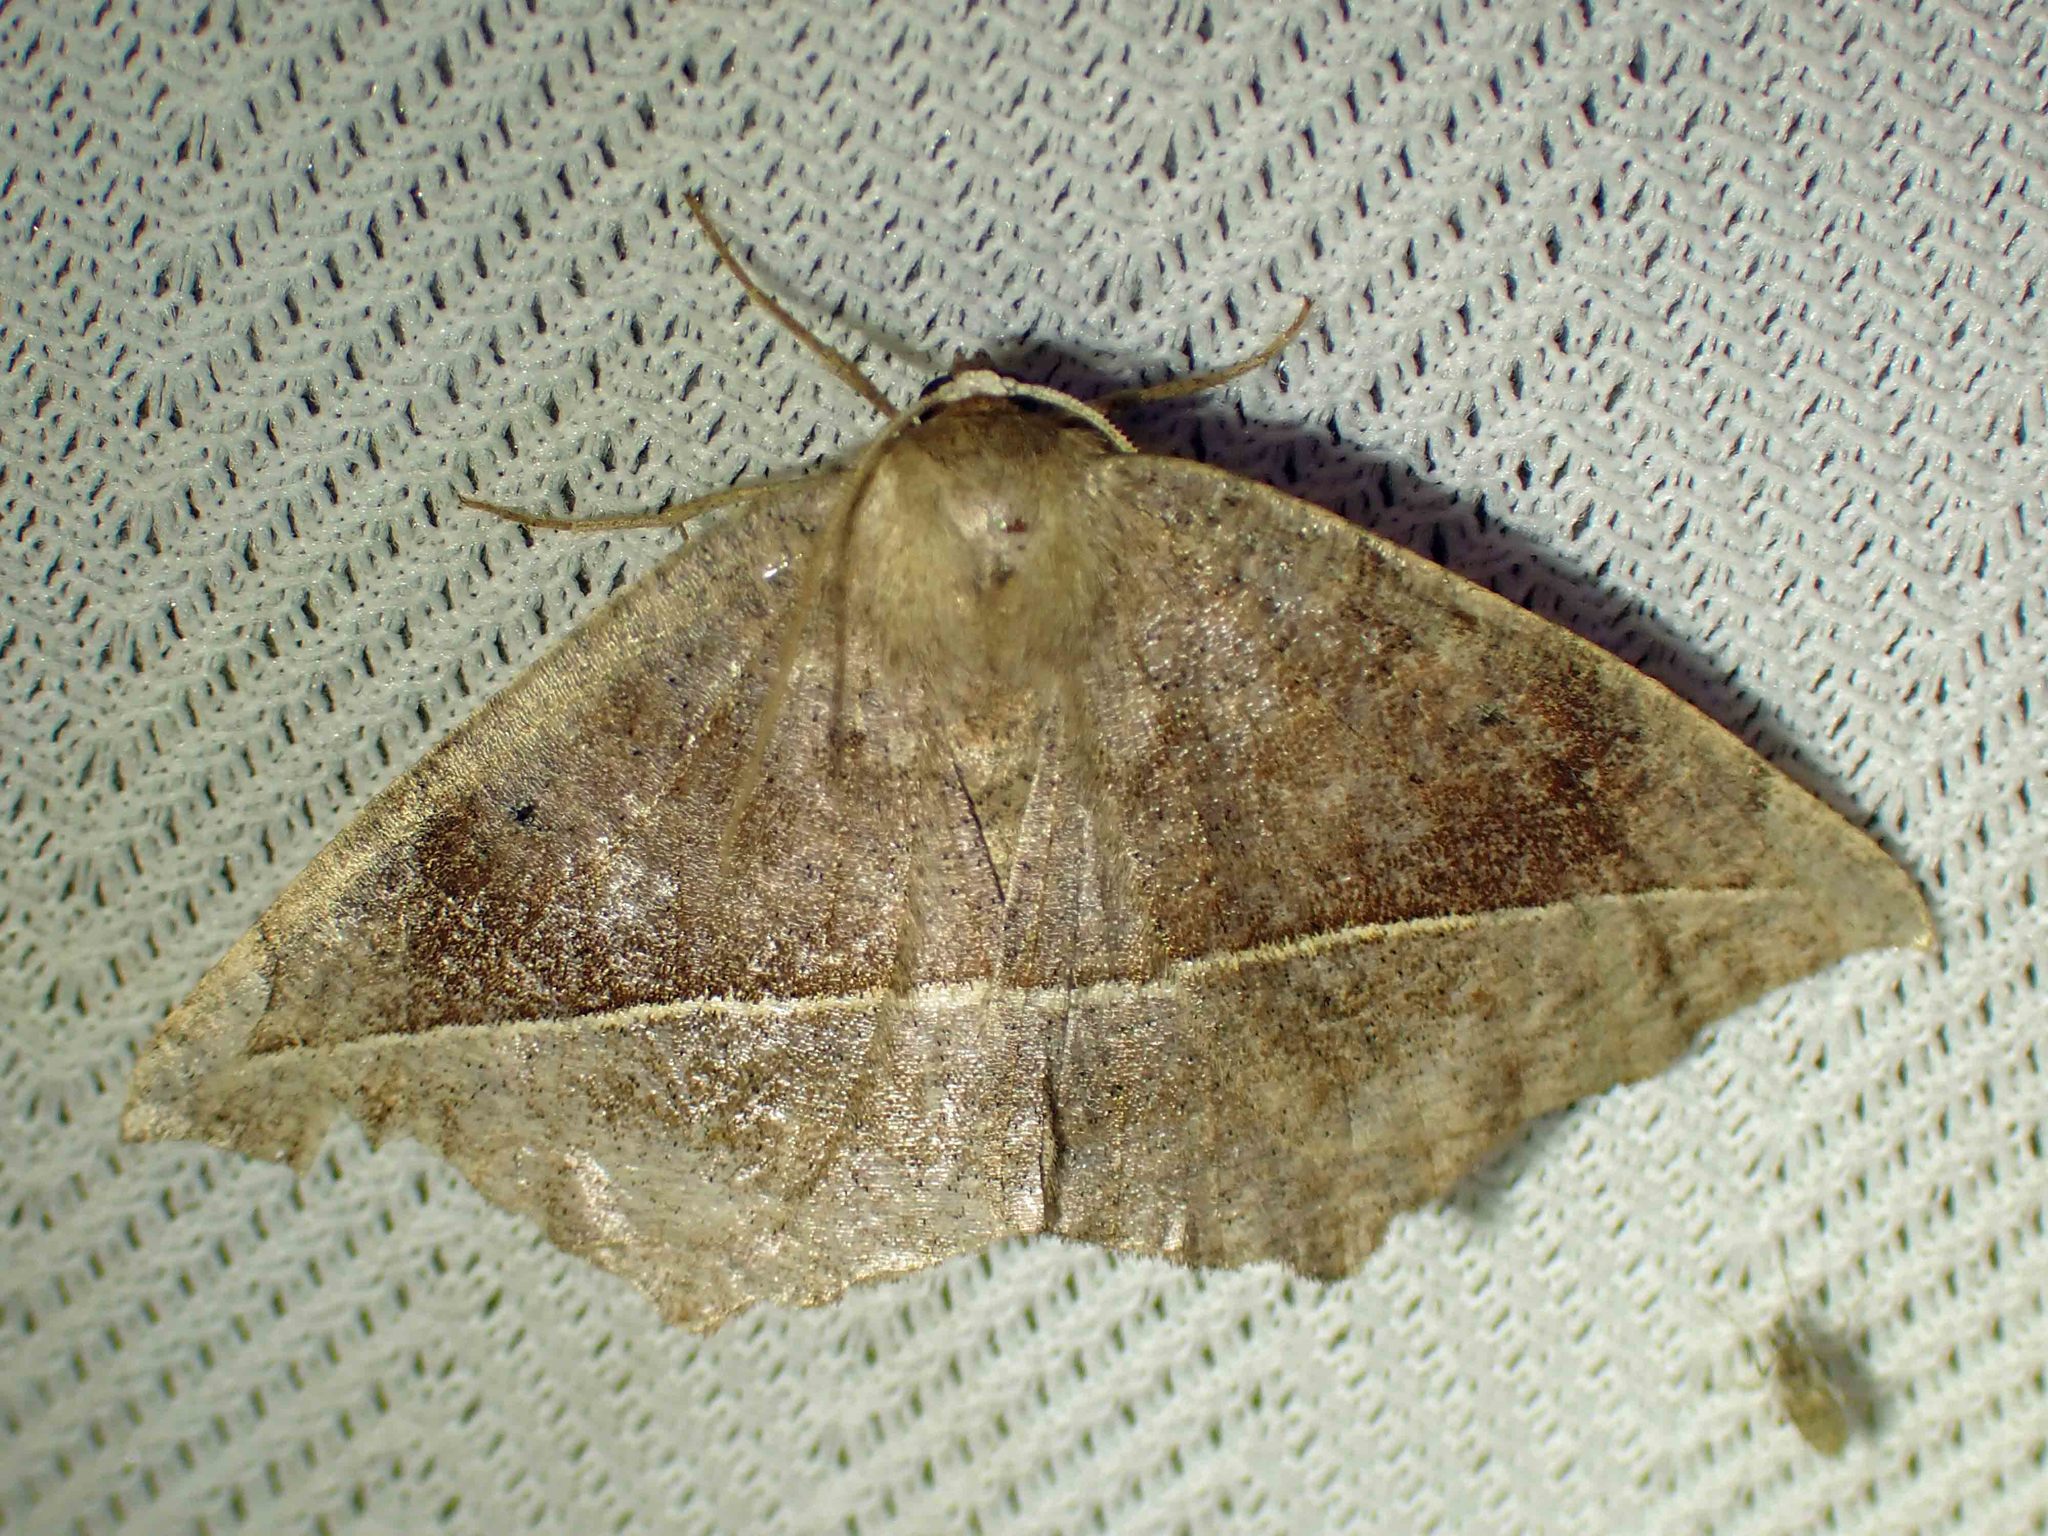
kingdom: Animalia
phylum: Arthropoda
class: Insecta
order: Lepidoptera
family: Geometridae
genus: Eutrapela
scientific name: Eutrapela clemataria
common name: Curved-toothed geometer
